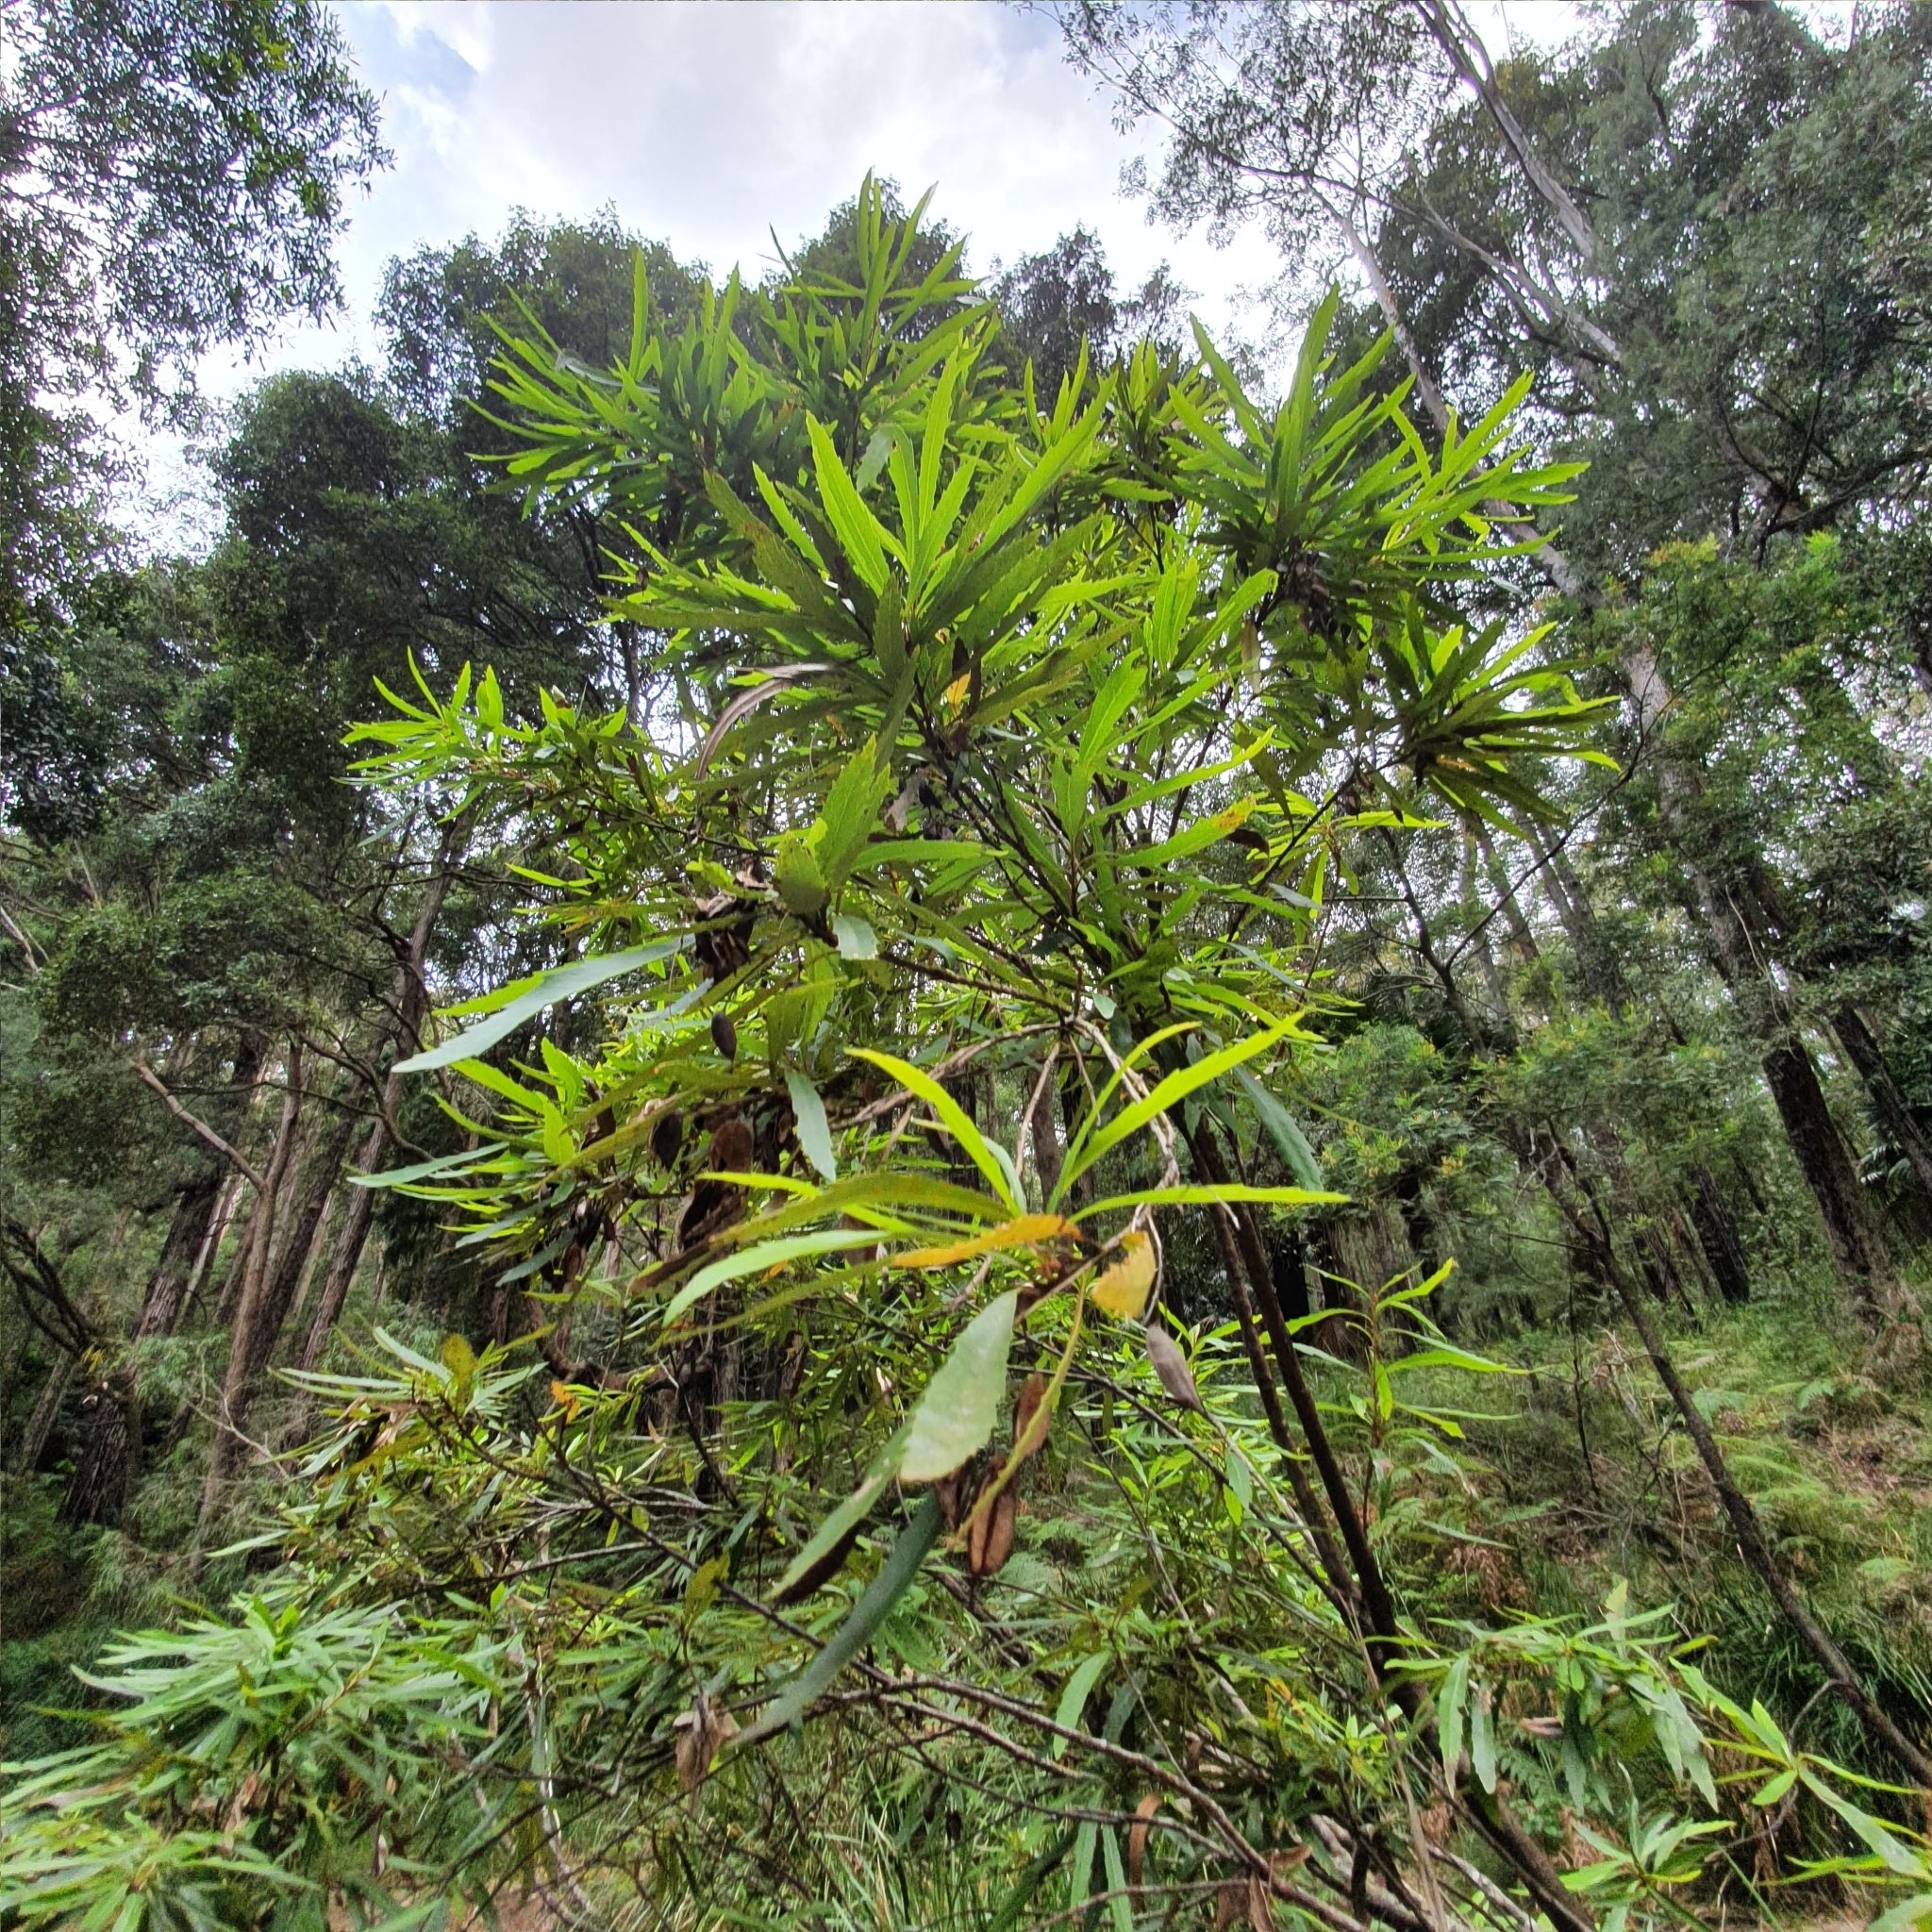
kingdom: Plantae
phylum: Tracheophyta
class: Magnoliopsida
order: Proteales
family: Proteaceae
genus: Lomatia
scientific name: Lomatia myricoides
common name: Longleaf lomatia
